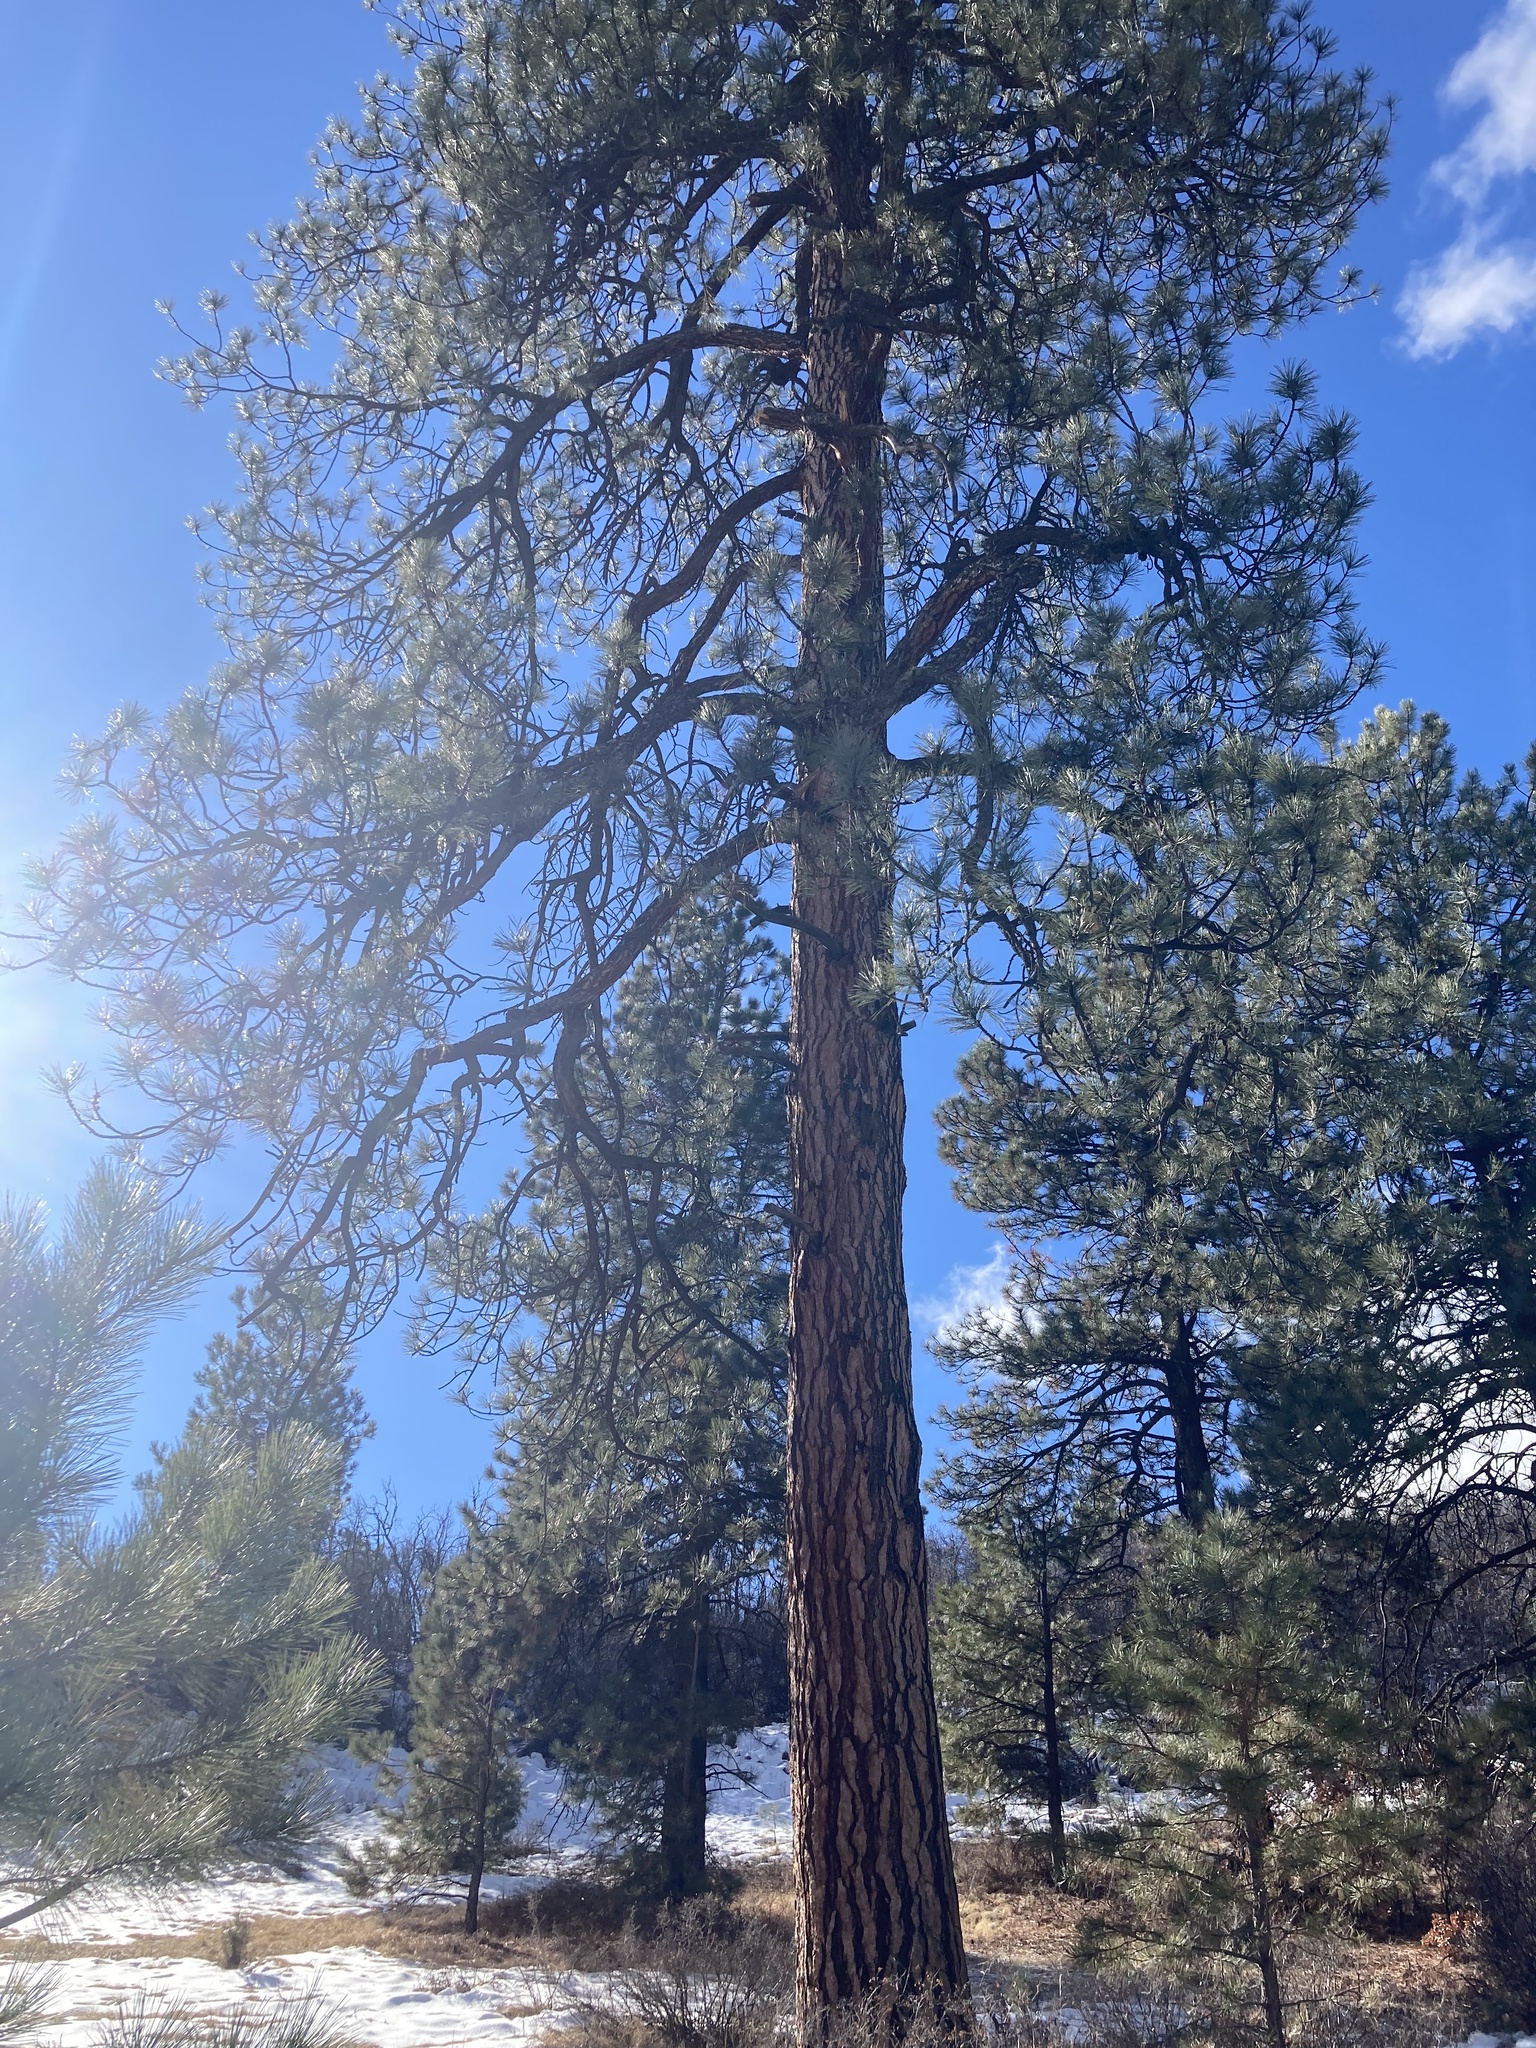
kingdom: Plantae
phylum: Tracheophyta
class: Pinopsida
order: Pinales
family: Pinaceae
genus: Pinus
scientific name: Pinus ponderosa
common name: Western yellow-pine
